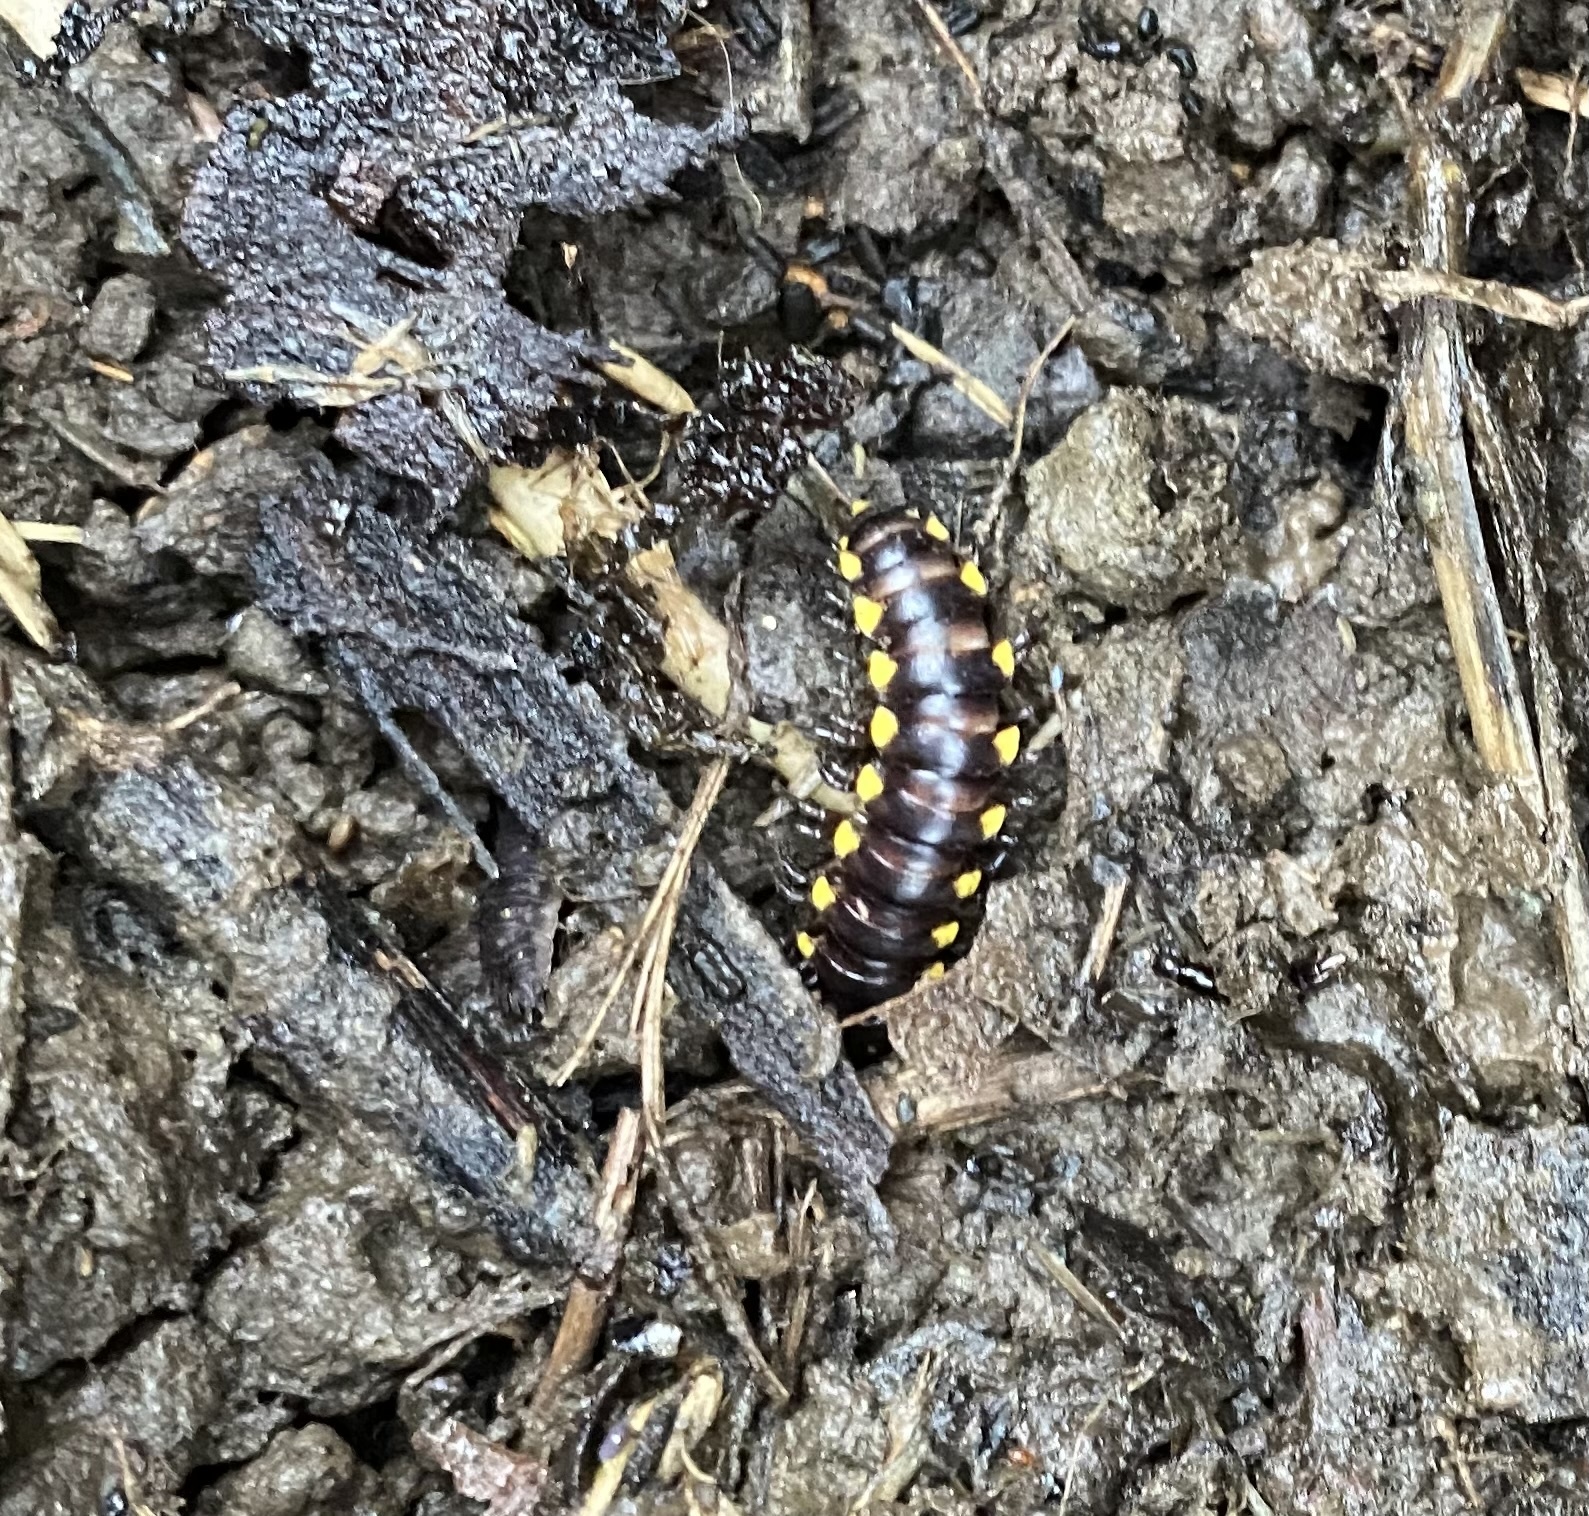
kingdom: Animalia
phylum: Arthropoda
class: Diplopoda
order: Polydesmida
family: Xystodesmidae
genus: Harpaphe
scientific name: Harpaphe haydeniana
